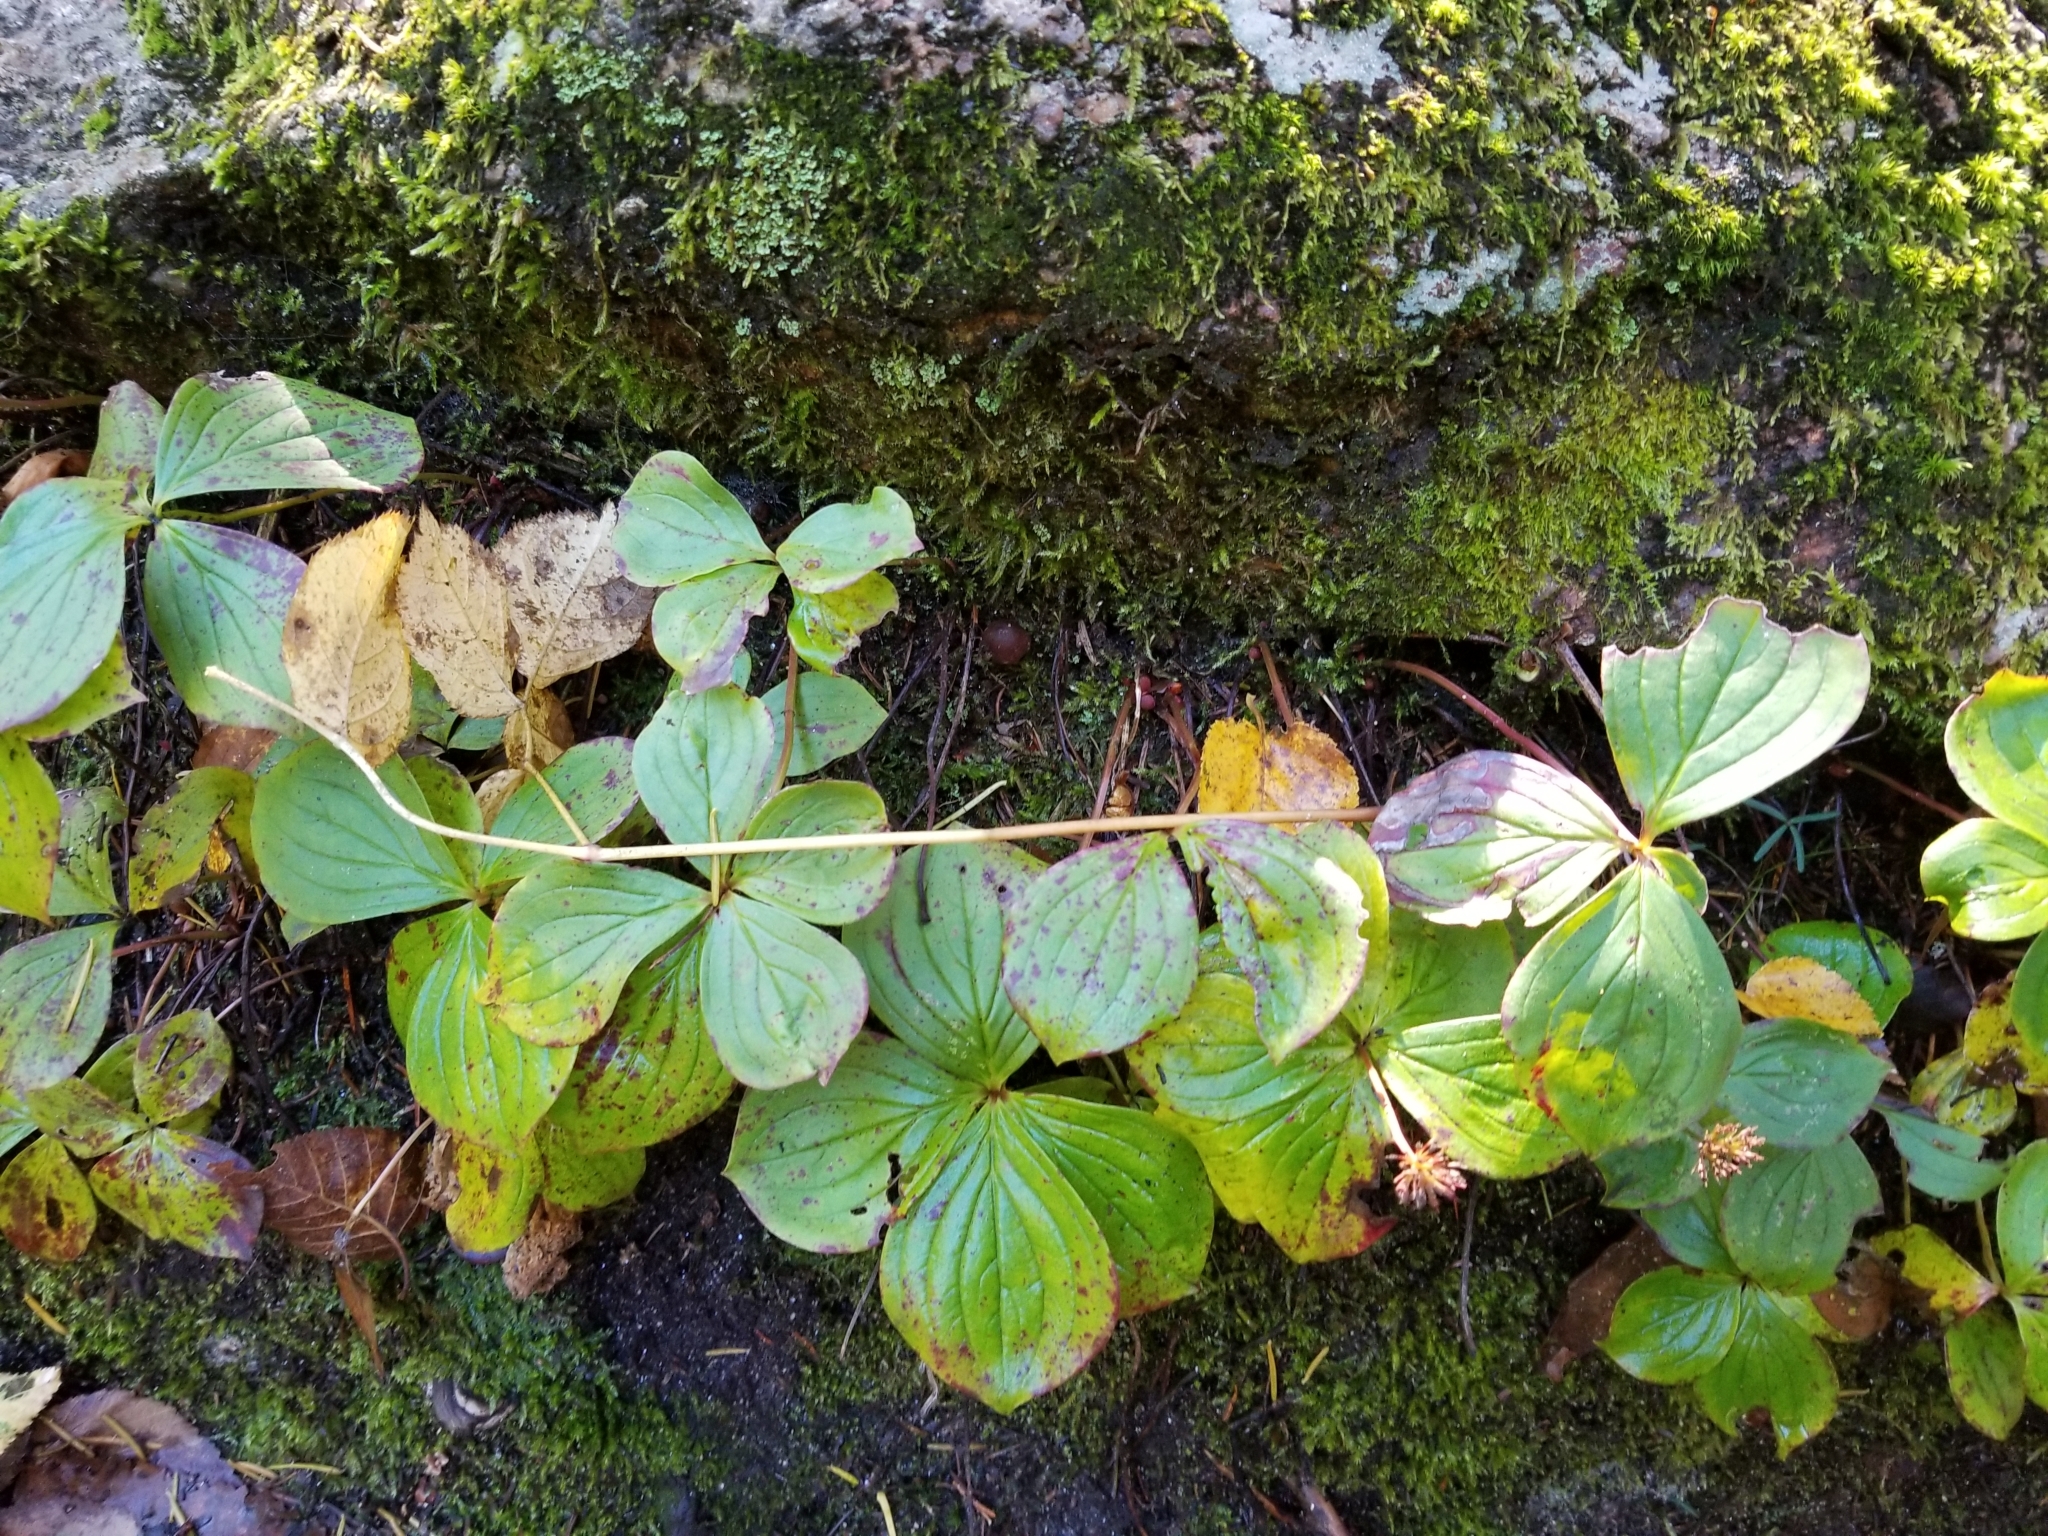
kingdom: Plantae
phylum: Tracheophyta
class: Magnoliopsida
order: Cornales
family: Cornaceae
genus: Cornus
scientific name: Cornus canadensis
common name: Creeping dogwood
